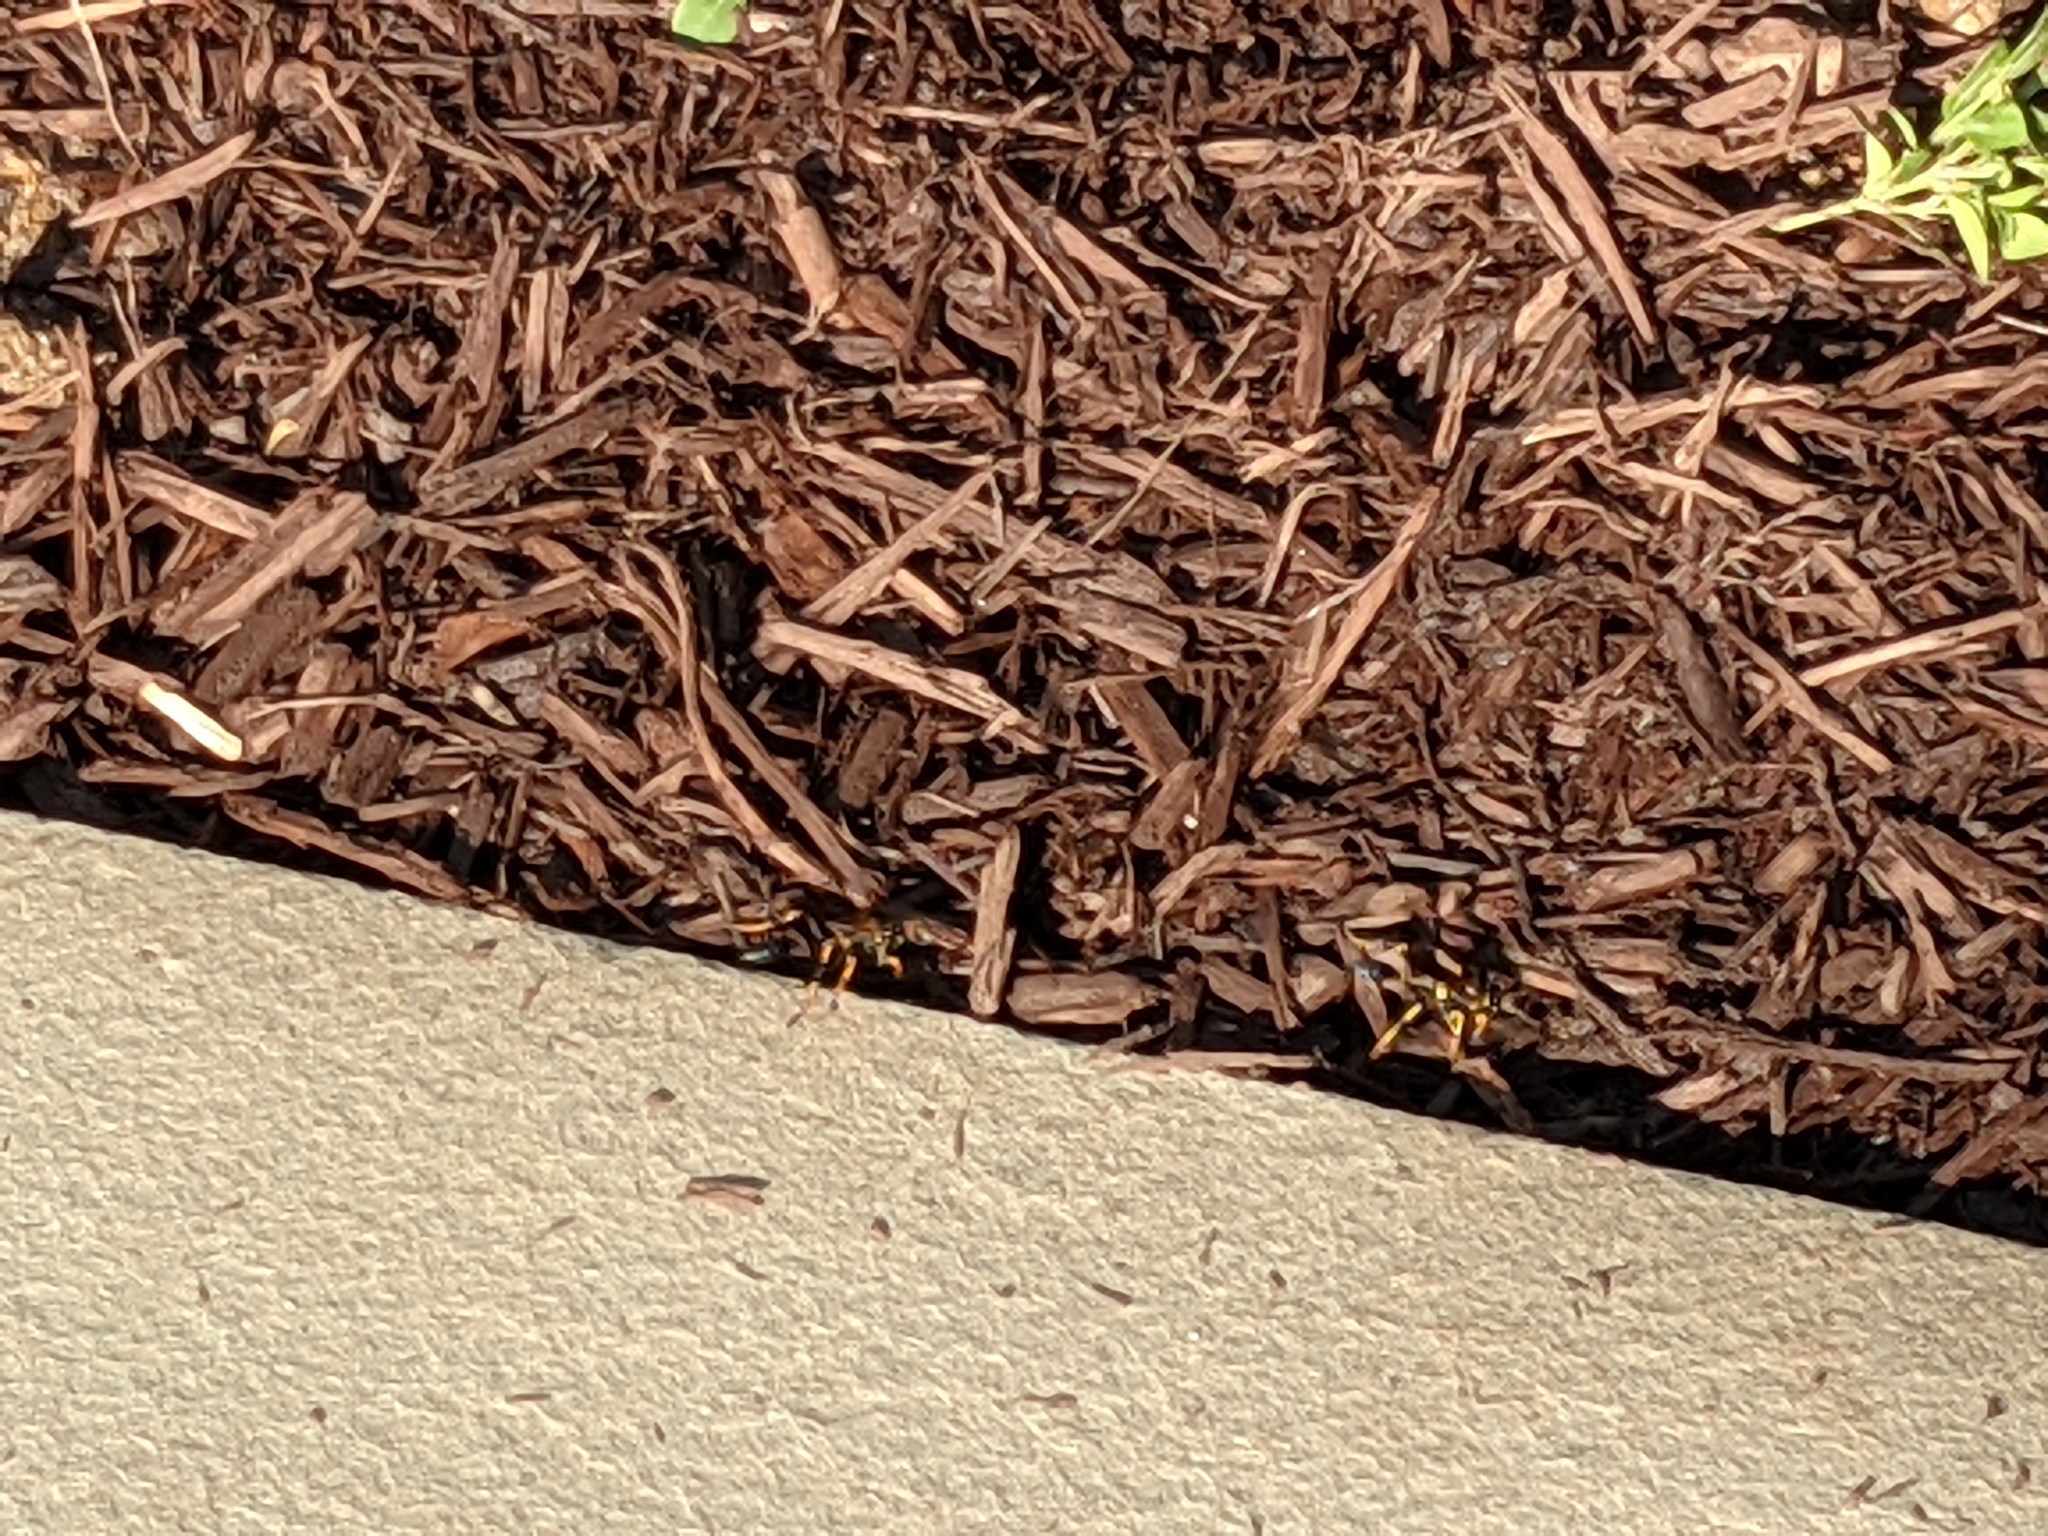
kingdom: Animalia
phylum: Arthropoda
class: Insecta
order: Hymenoptera
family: Sphecidae
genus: Sceliphron
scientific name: Sceliphron caementarium
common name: Mud dauber
